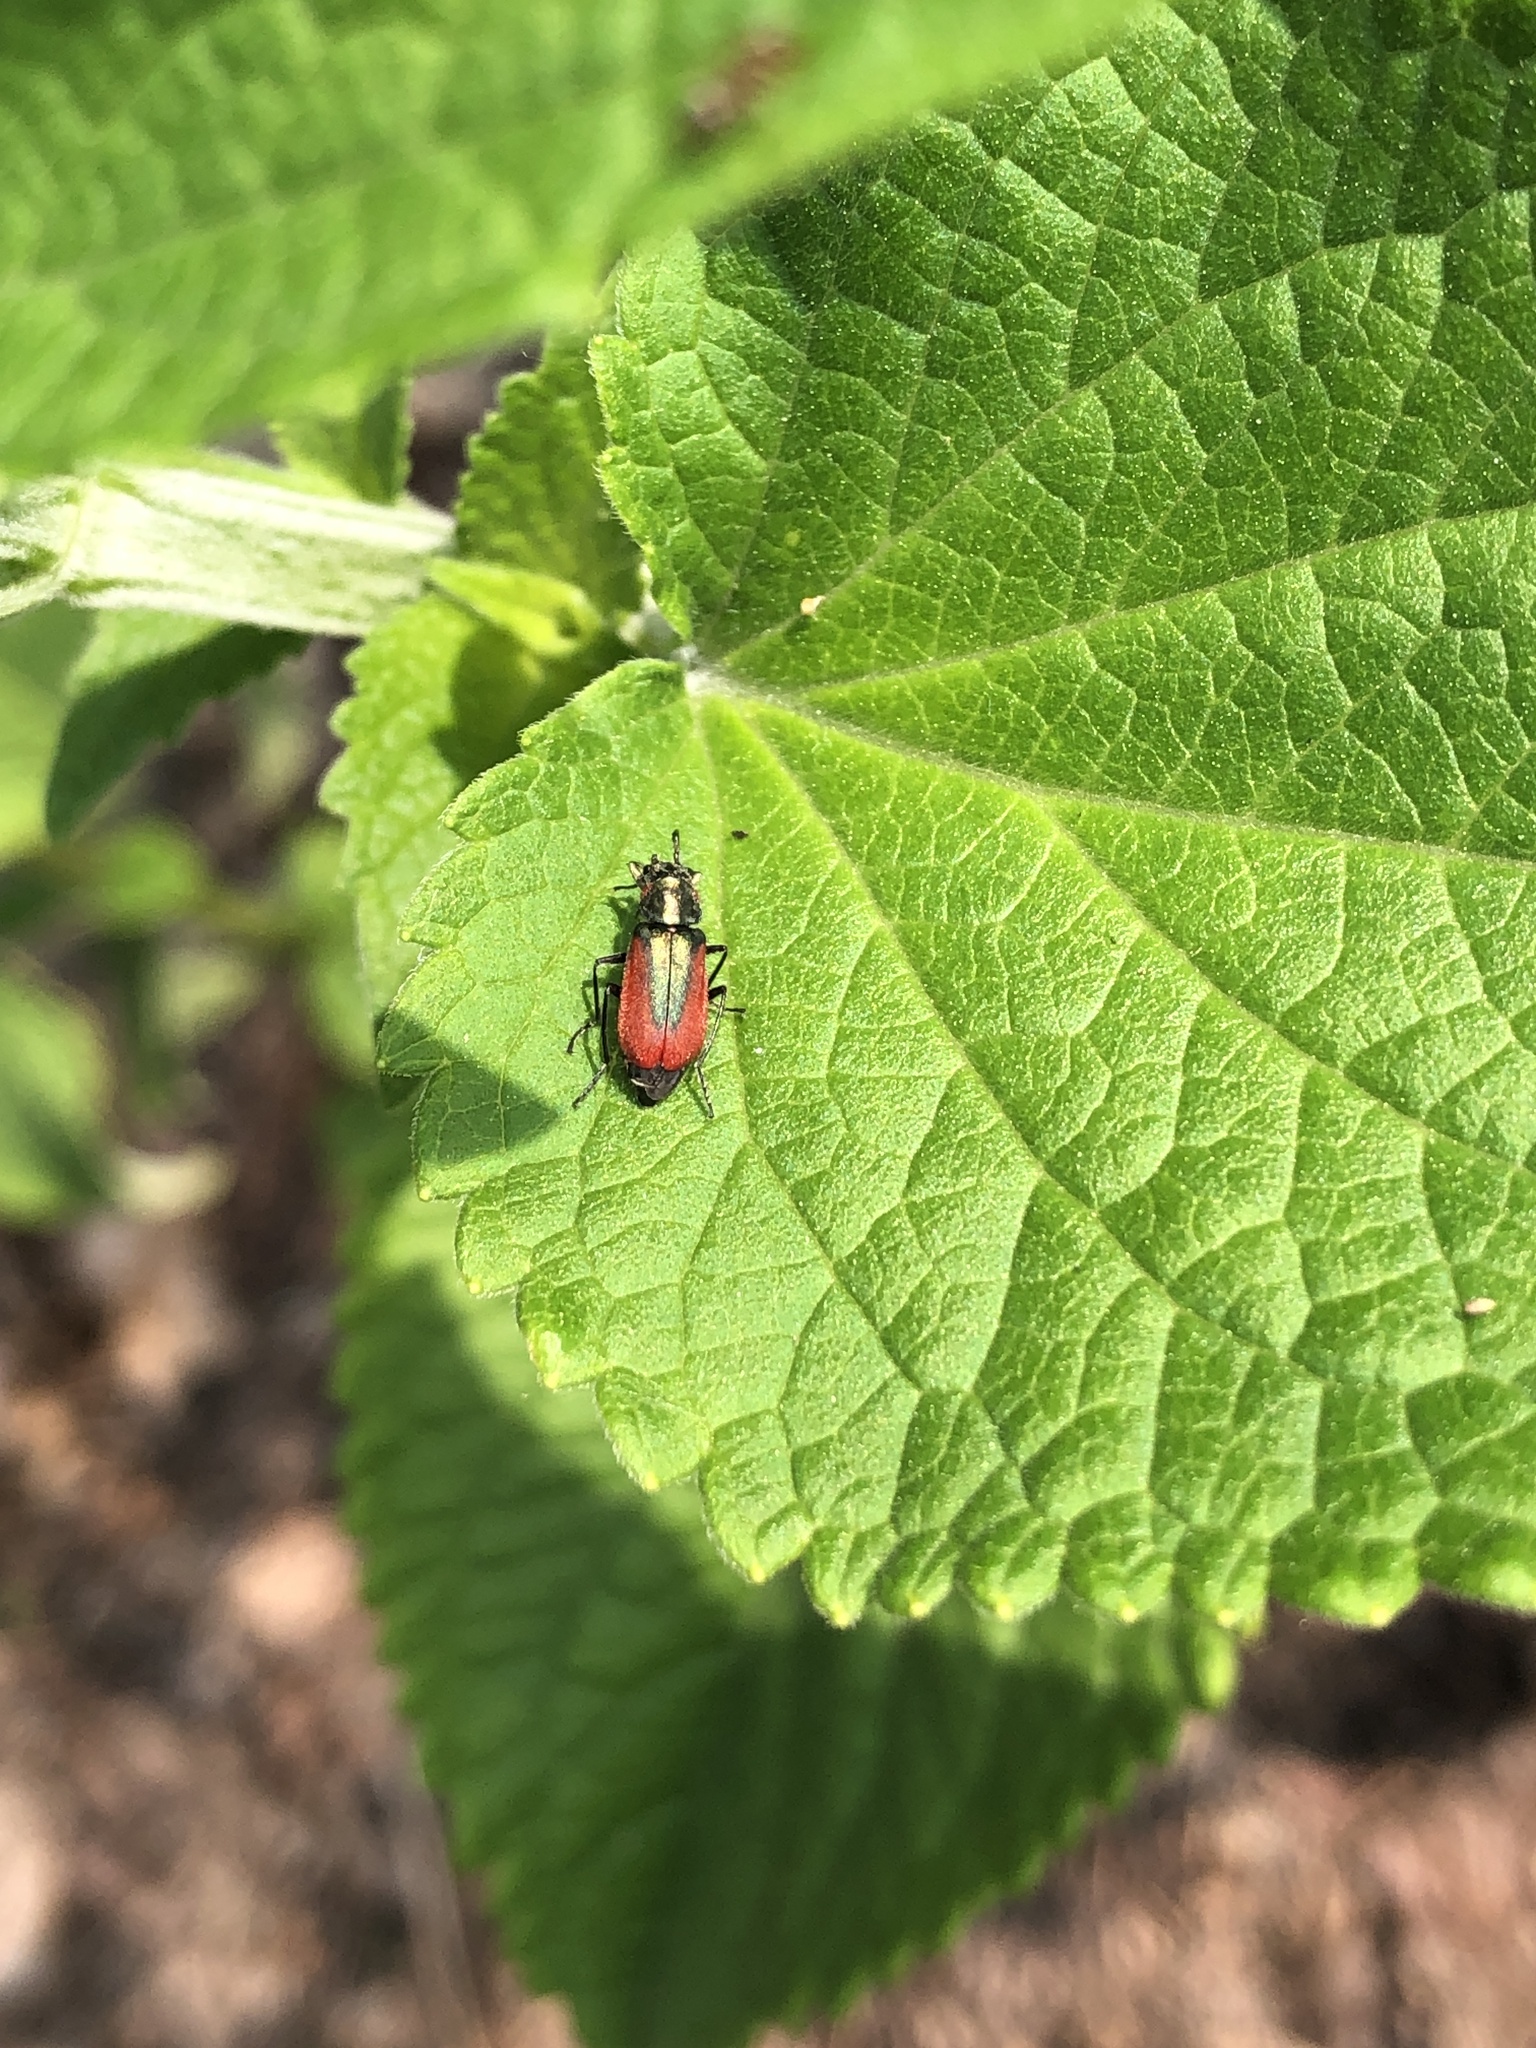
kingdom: Animalia
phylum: Arthropoda
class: Insecta
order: Coleoptera
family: Melyridae
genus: Malachius
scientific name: Malachius aeneus
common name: Scarlet malachite beetle
